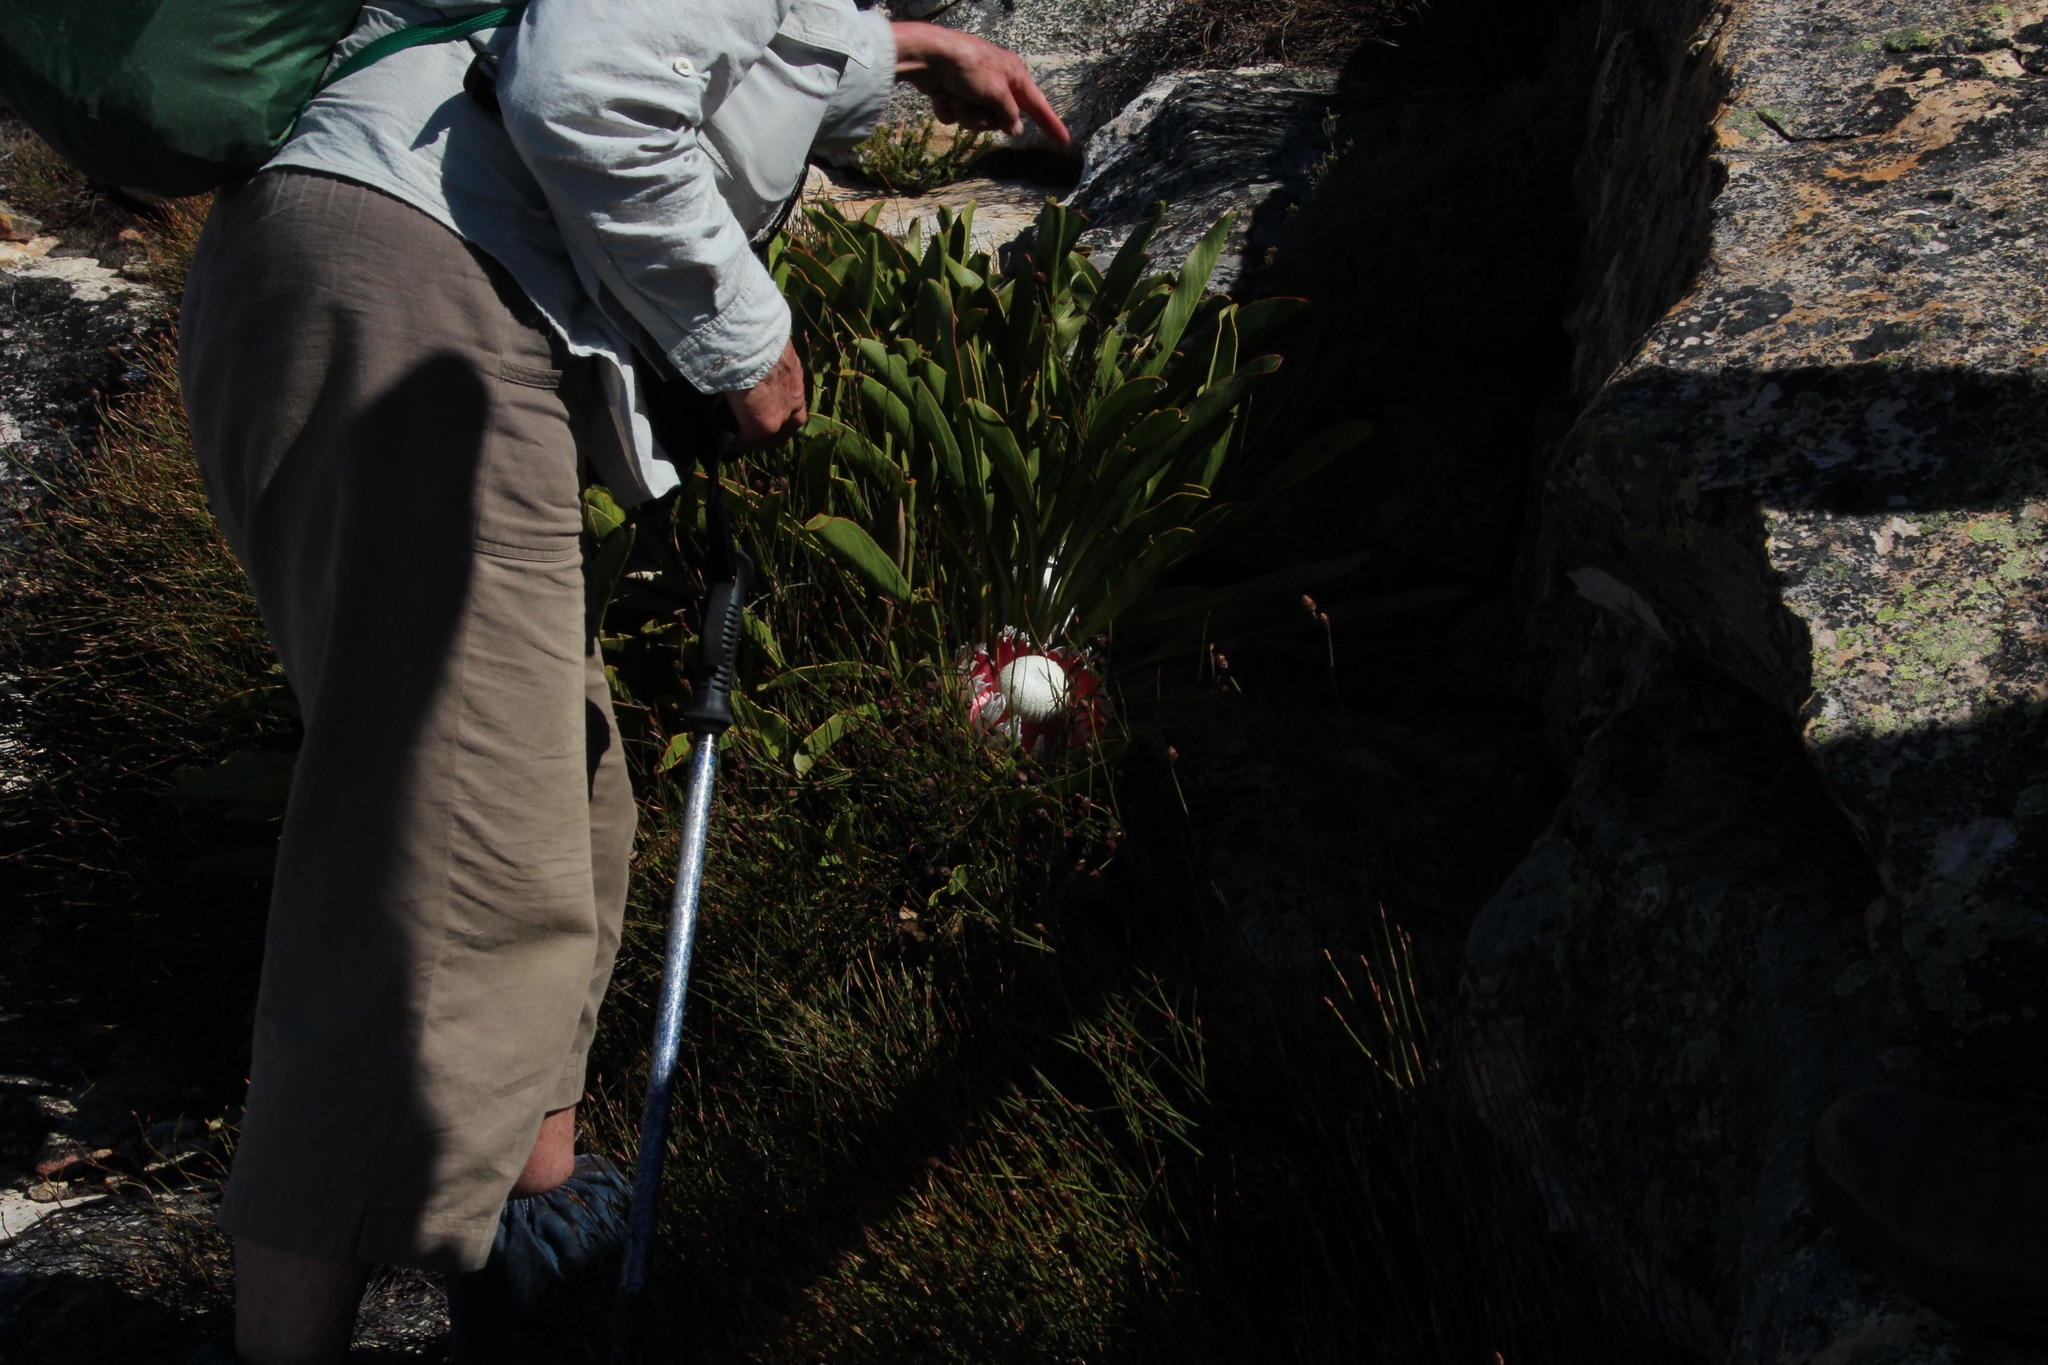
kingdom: Plantae
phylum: Tracheophyta
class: Magnoliopsida
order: Proteales
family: Proteaceae
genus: Protea
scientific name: Protea cryophila
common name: Snow protea
